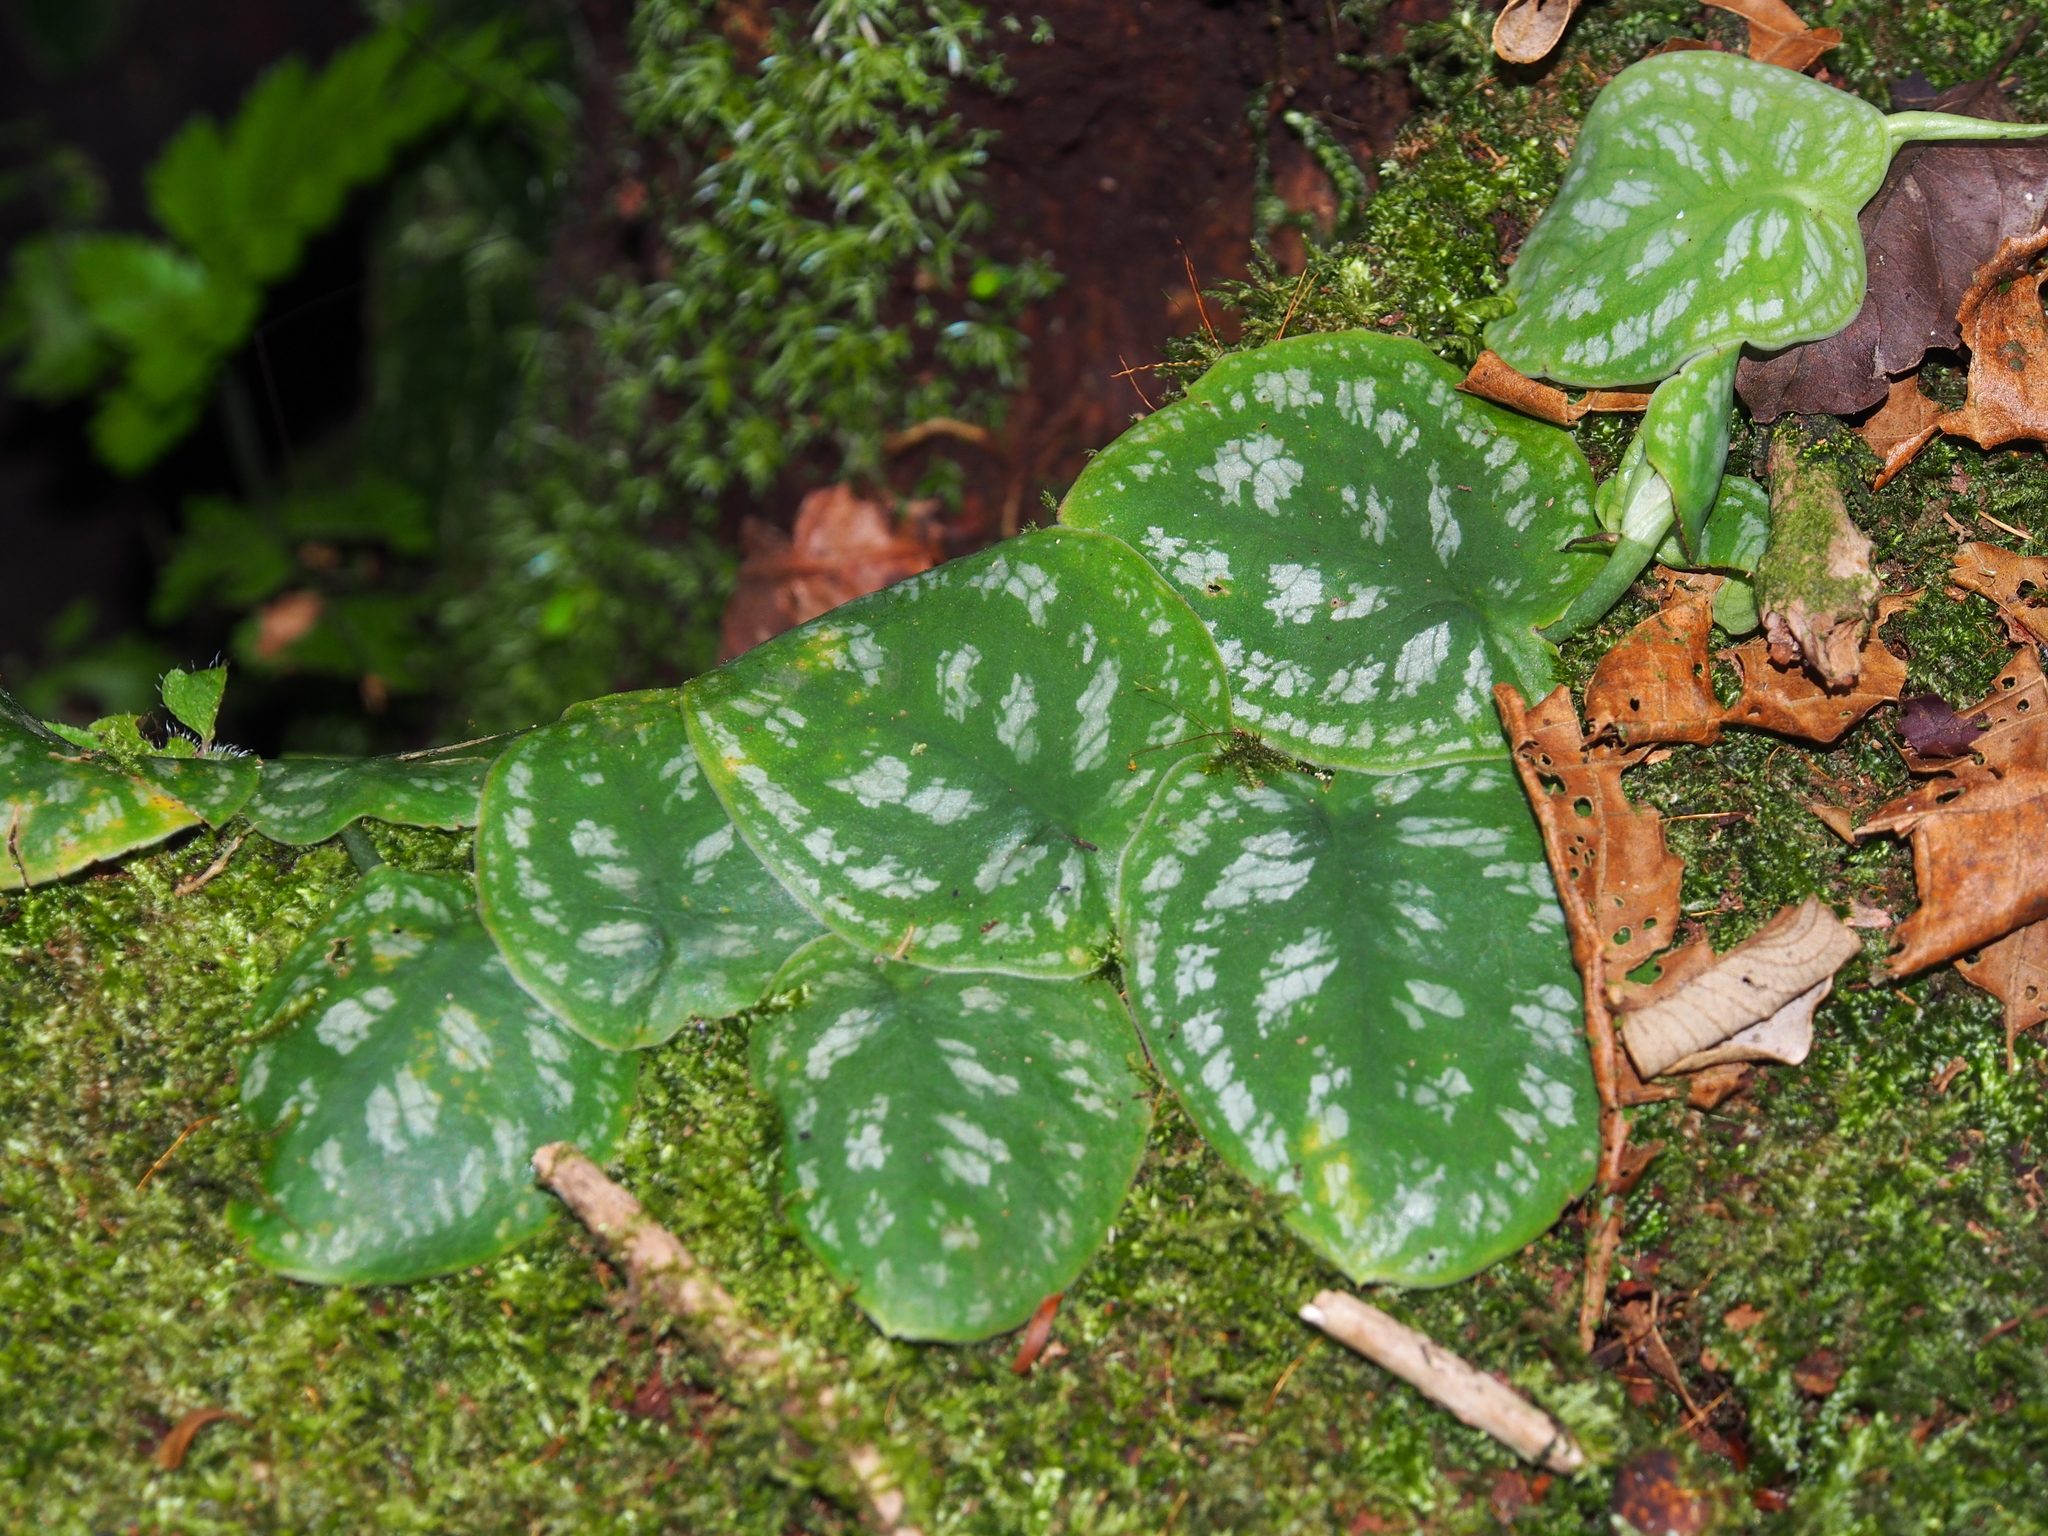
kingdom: Plantae
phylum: Tracheophyta
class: Liliopsida
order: Alismatales
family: Araceae
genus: Monstera
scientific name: Monstera tuberculata
